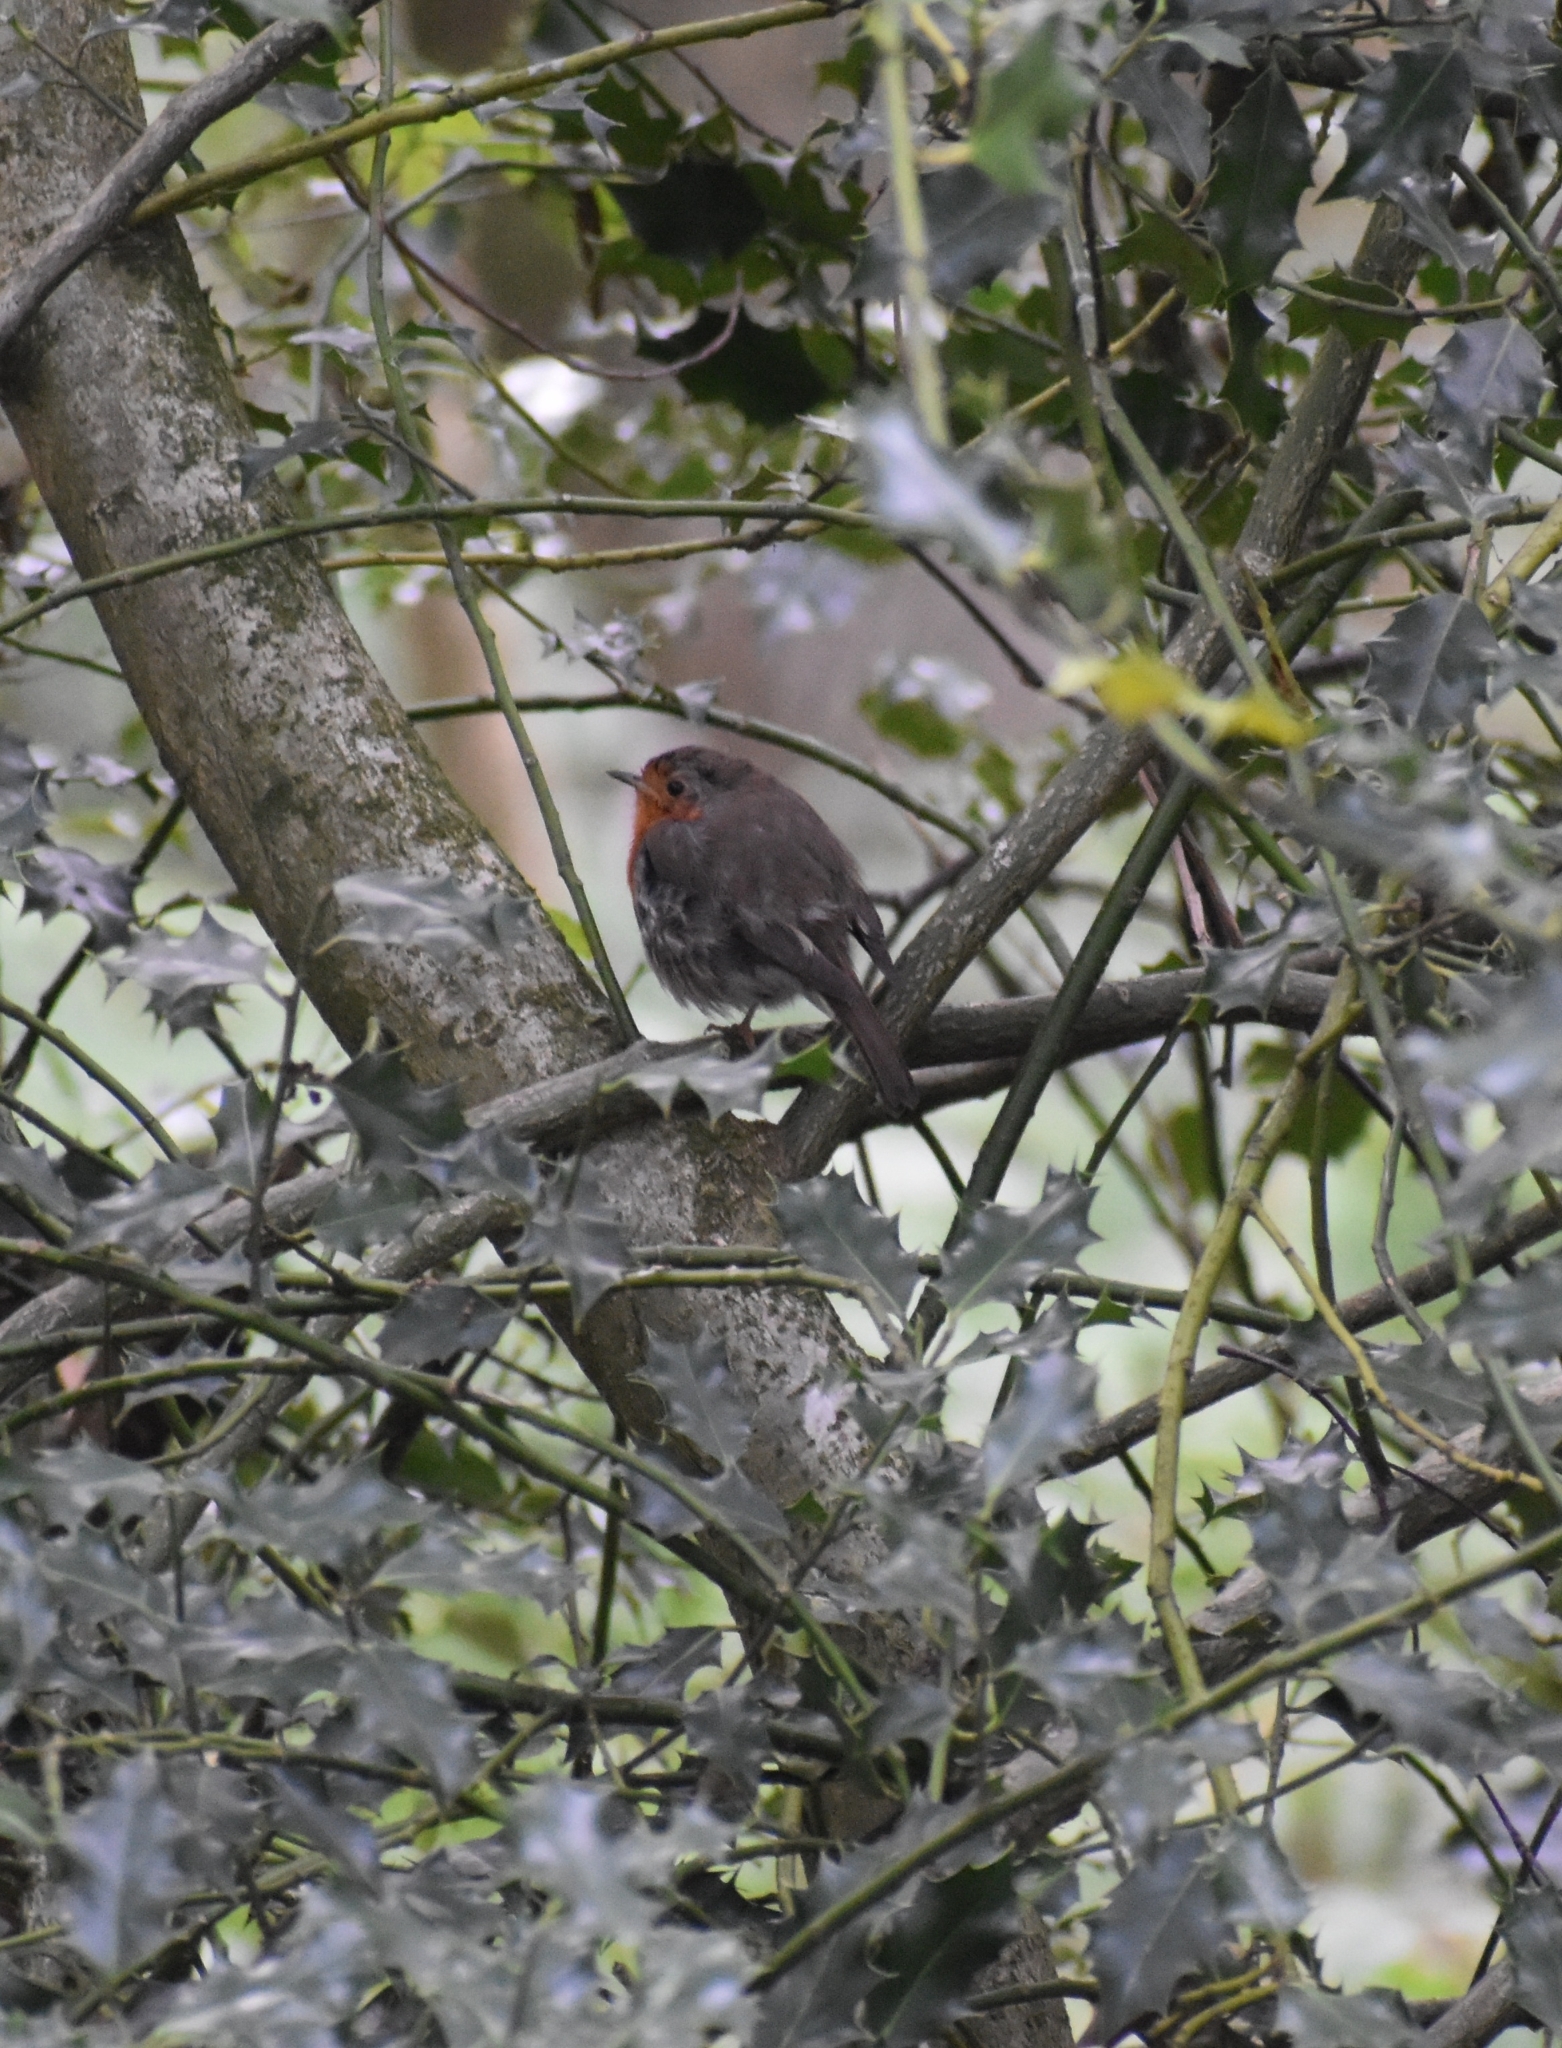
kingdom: Animalia
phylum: Chordata
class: Aves
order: Passeriformes
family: Muscicapidae
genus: Erithacus
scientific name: Erithacus rubecula
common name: European robin
